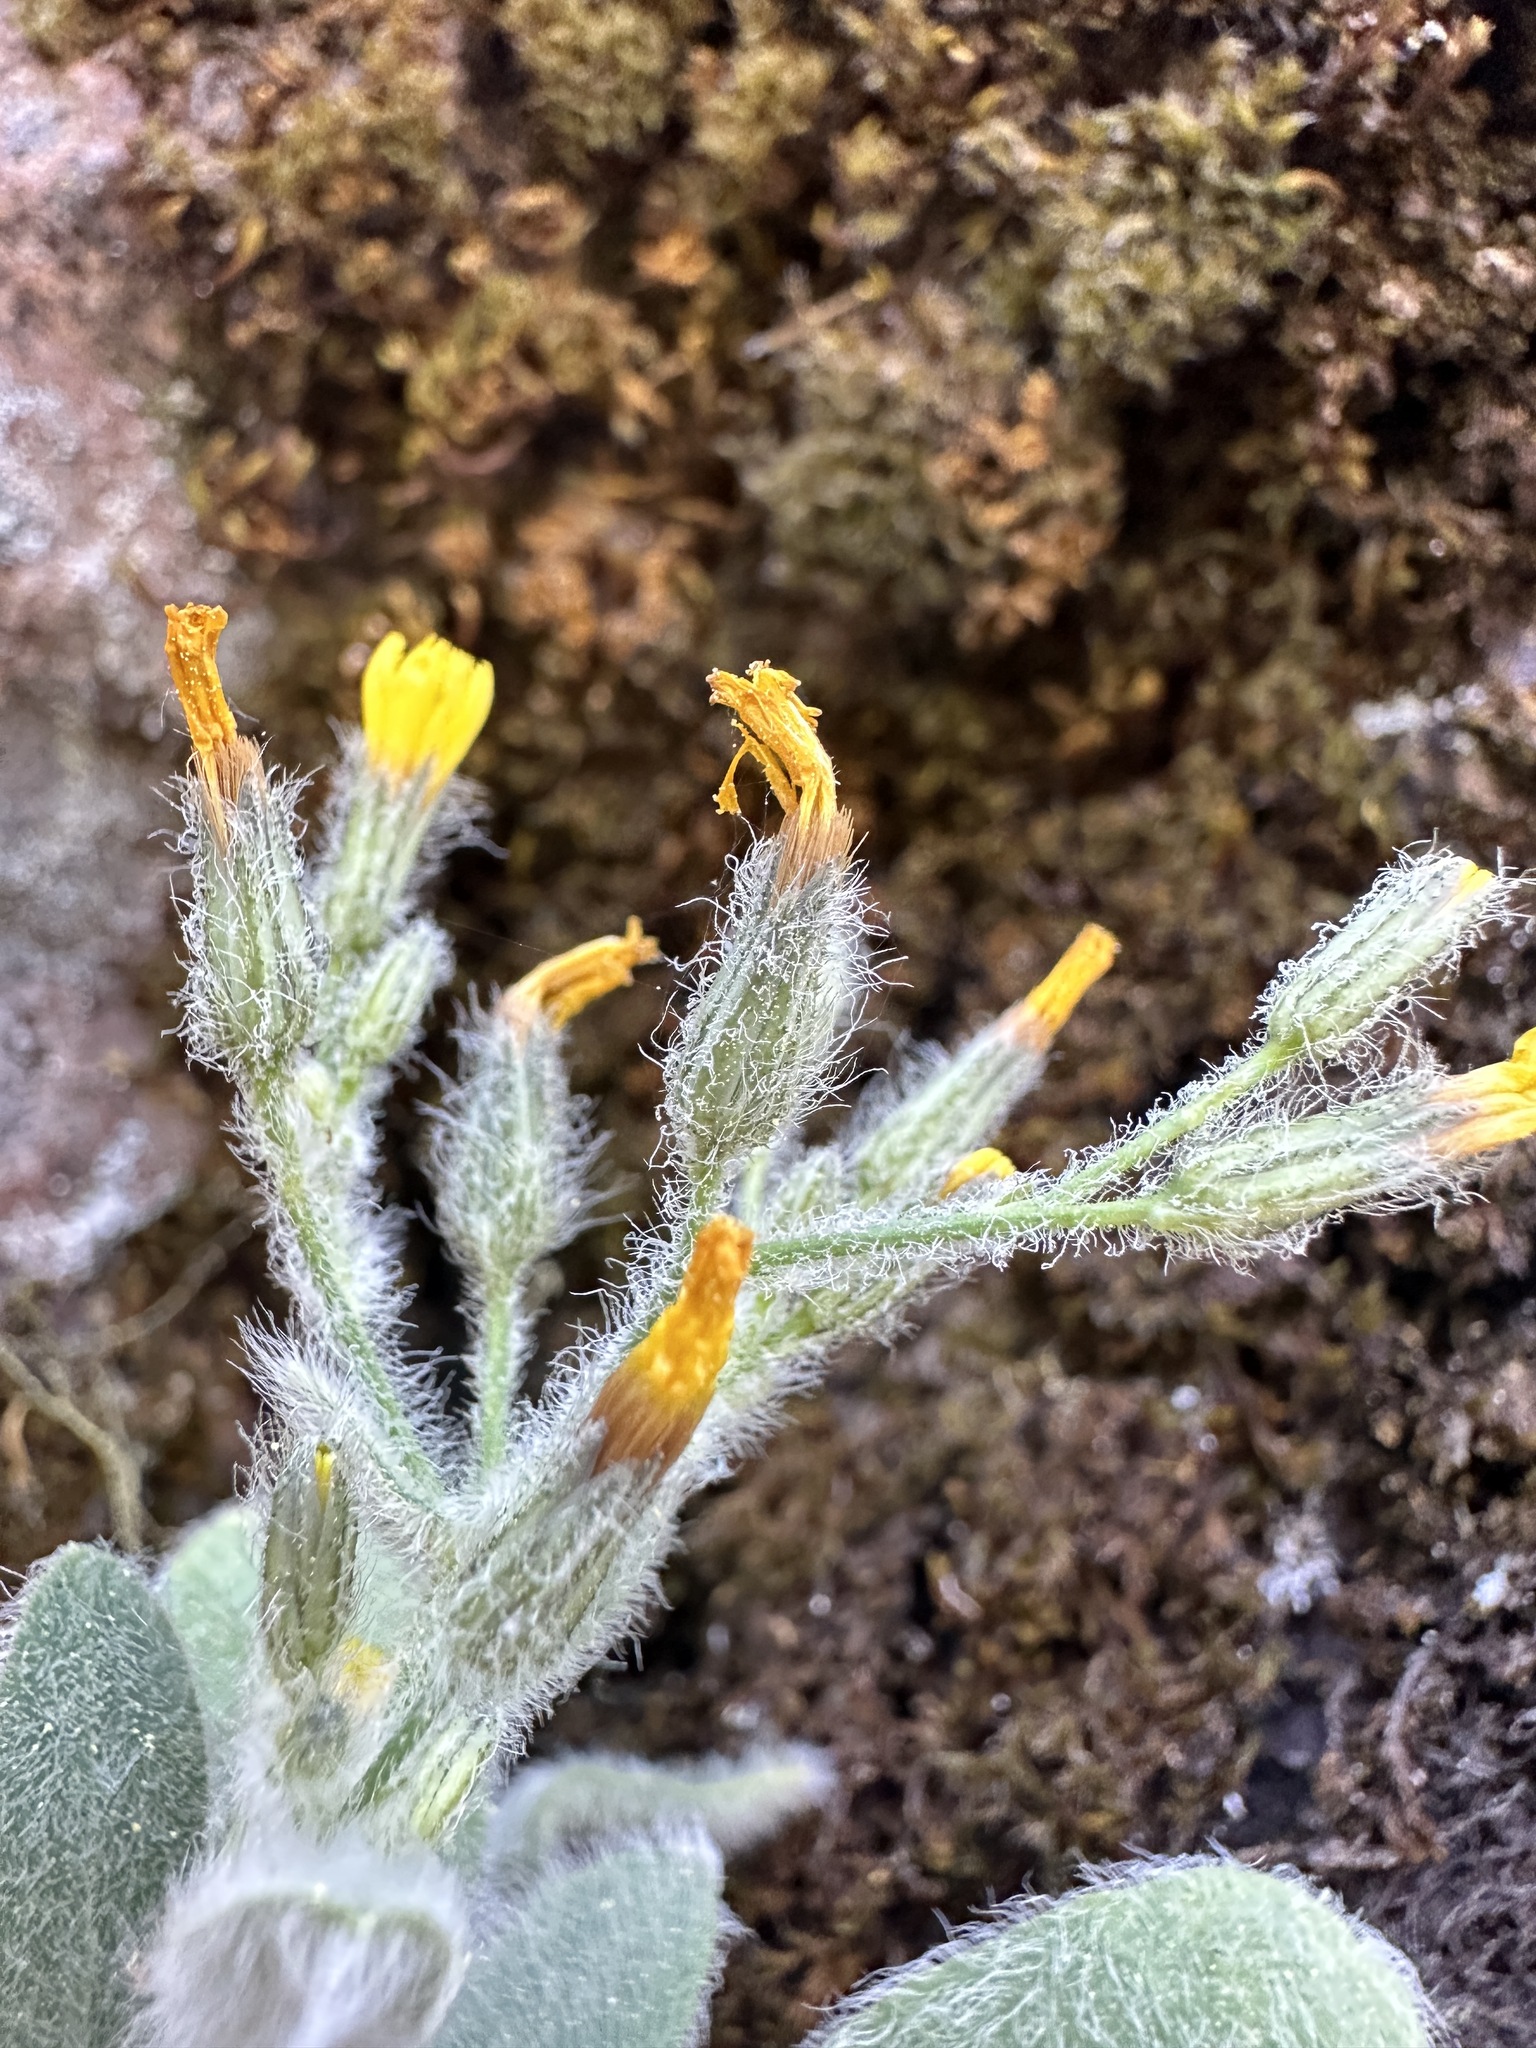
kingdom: Plantae
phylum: Tracheophyta
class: Magnoliopsida
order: Asterales
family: Asteraceae
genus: Hieracium
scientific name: Hieracium horridum
